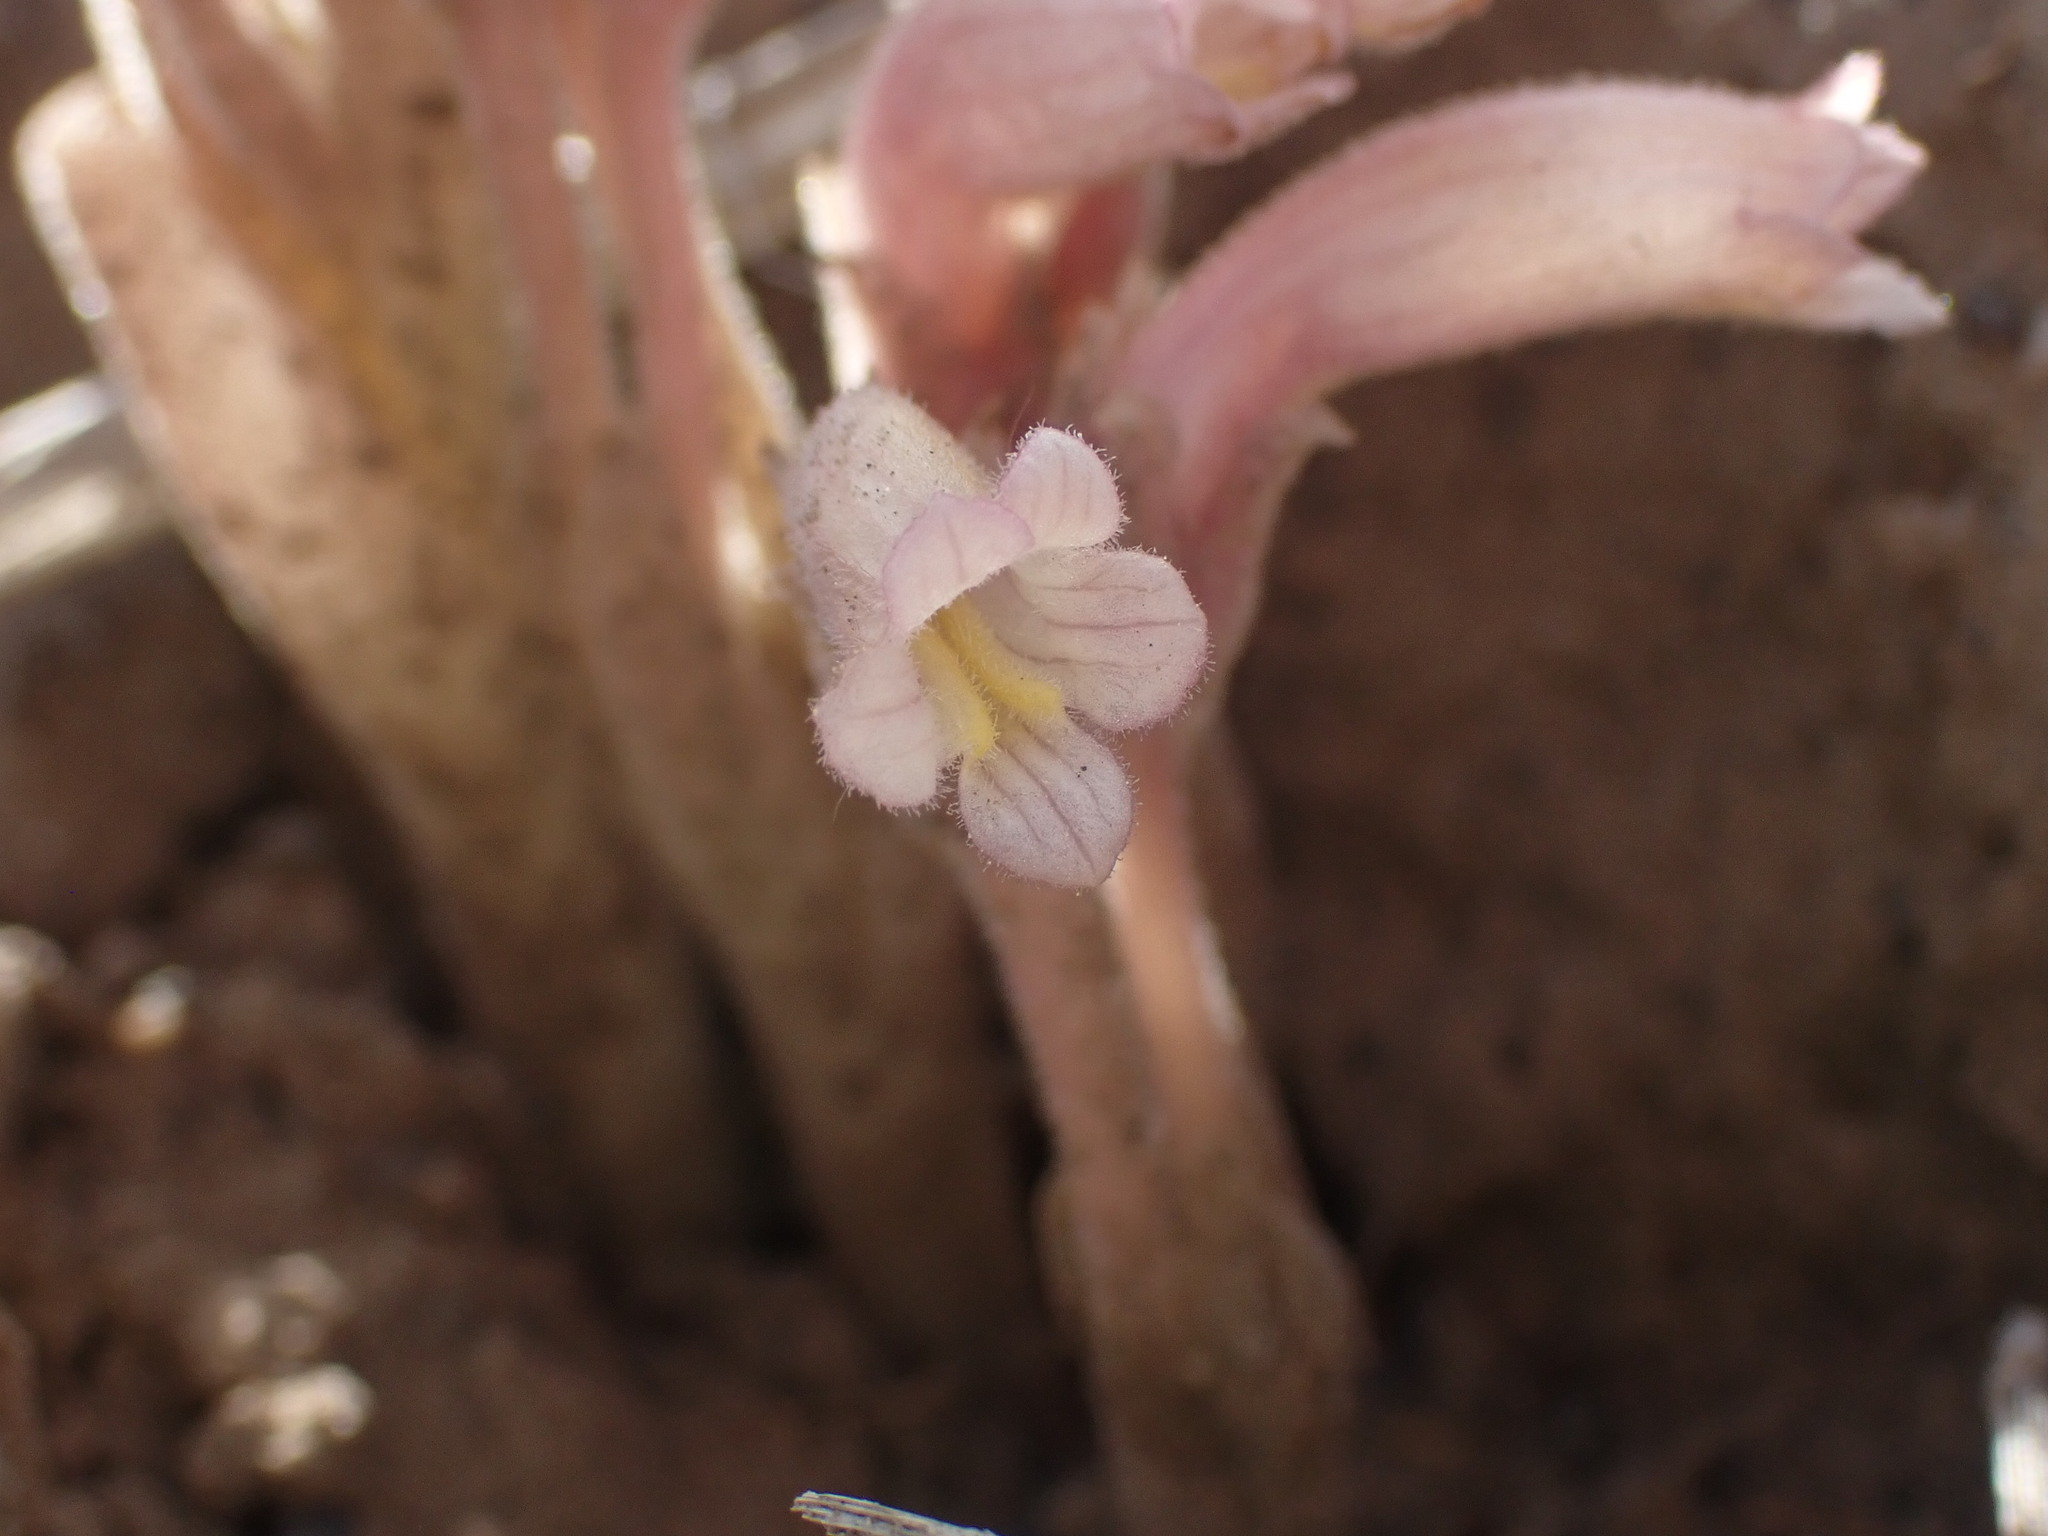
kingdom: Plantae
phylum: Tracheophyta
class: Magnoliopsida
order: Lamiales
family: Orobanchaceae
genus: Aphyllon
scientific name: Aphyllon fasciculatum
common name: Clustered broomrape
